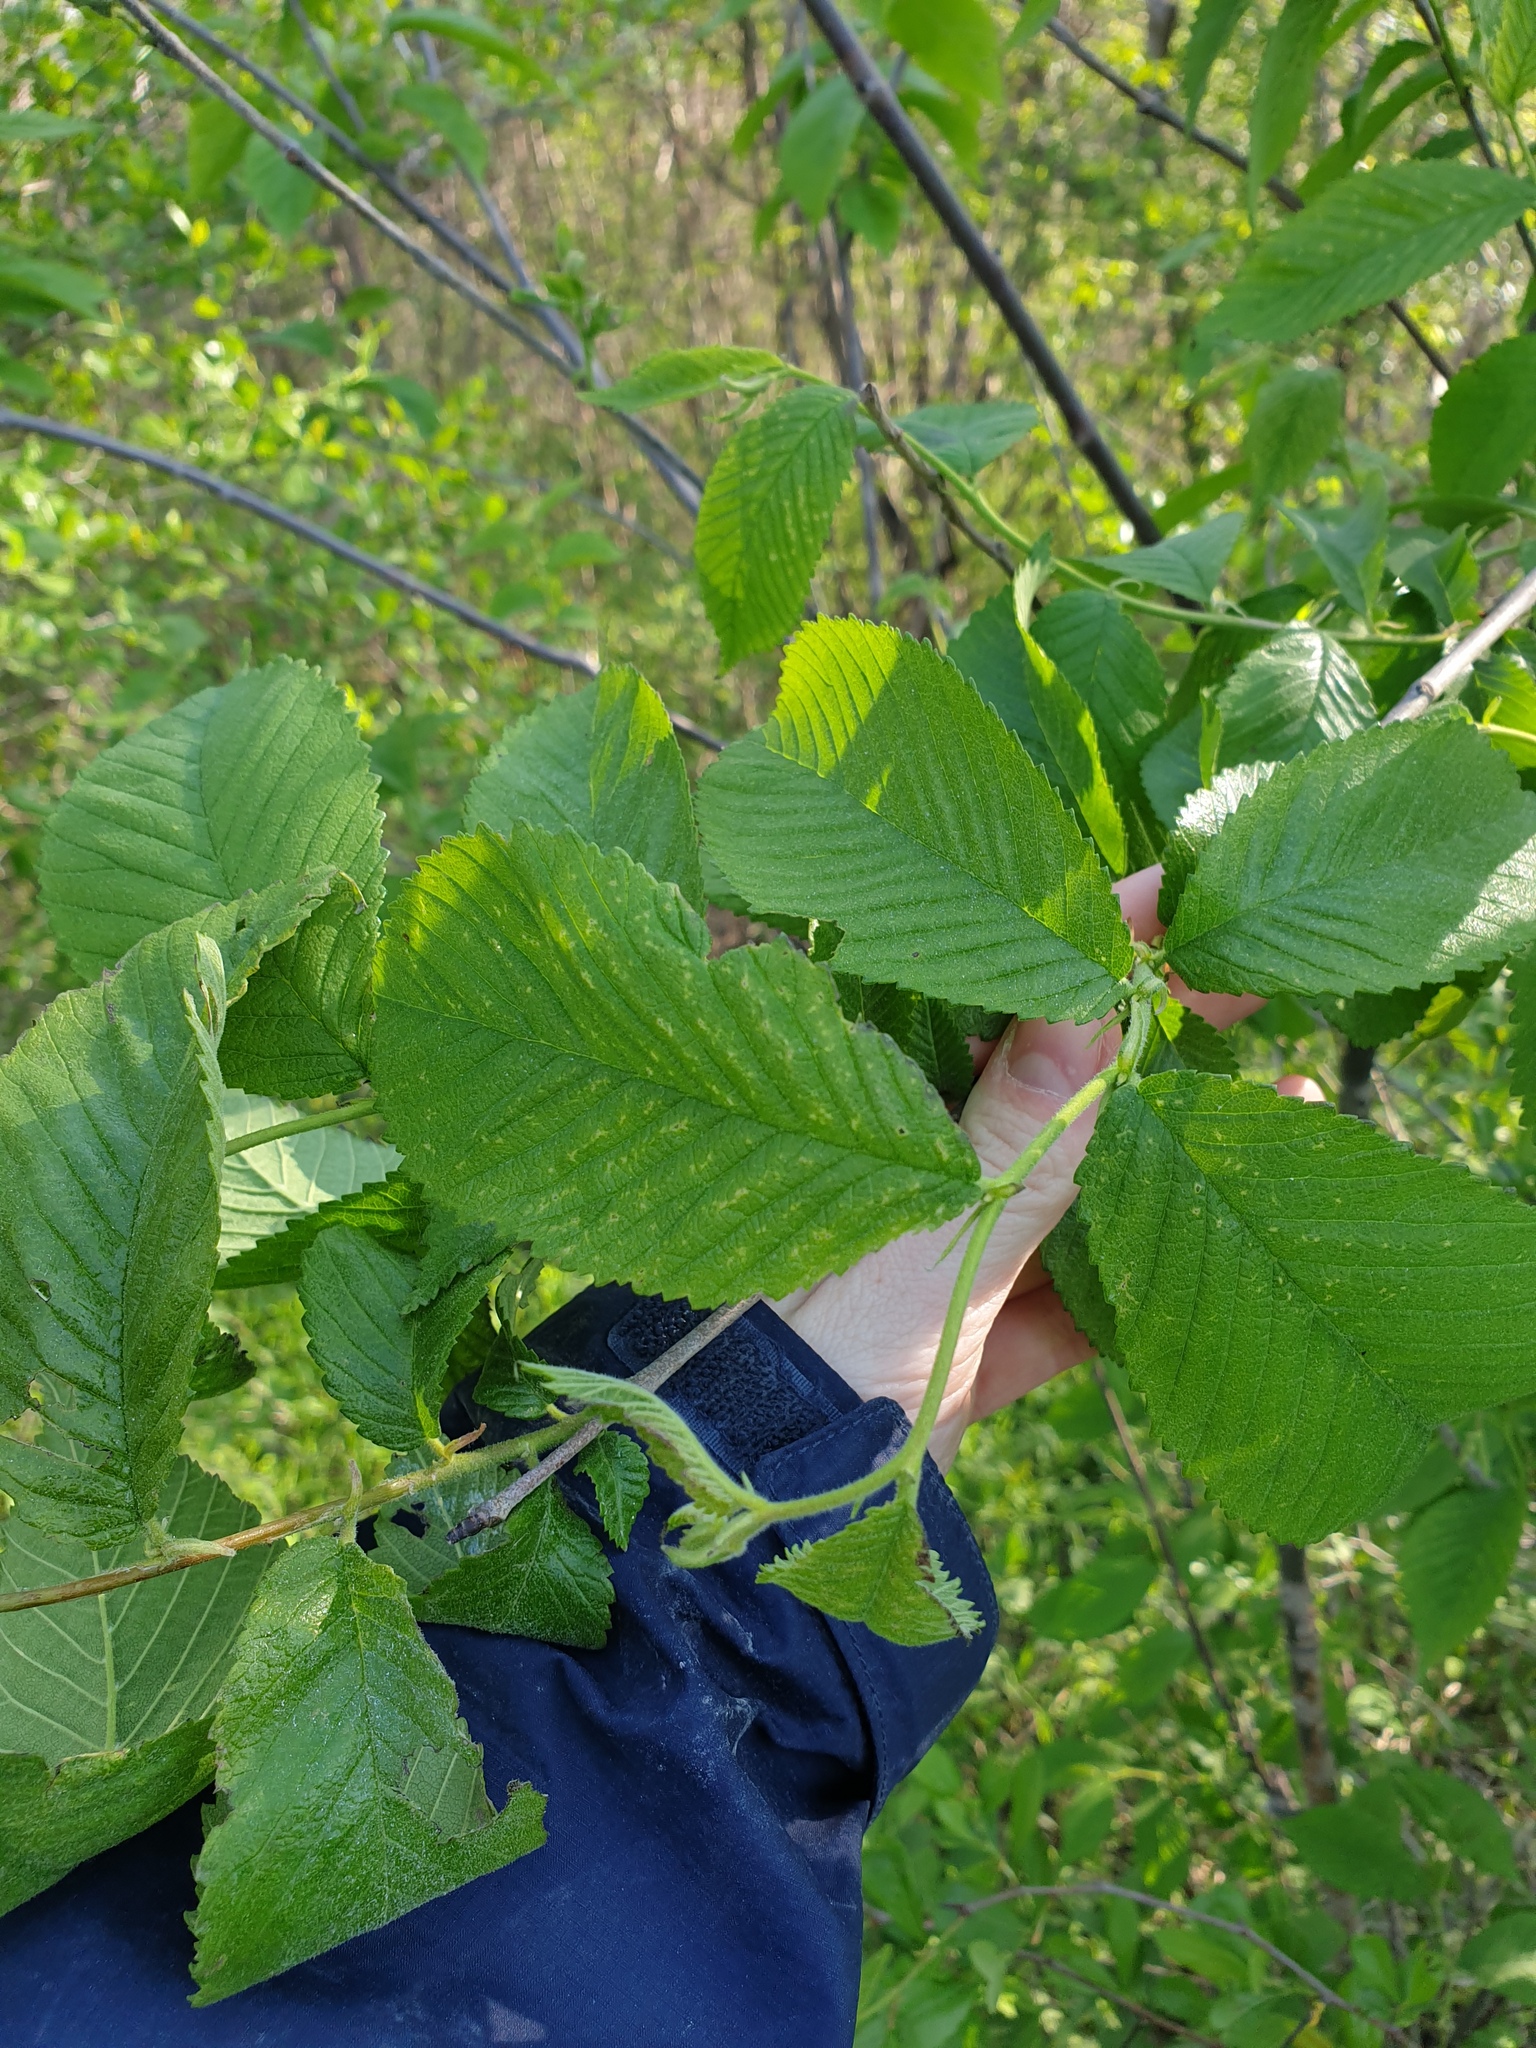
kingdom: Plantae
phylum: Tracheophyta
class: Magnoliopsida
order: Rosales
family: Ulmaceae
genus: Ulmus
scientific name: Ulmus rubra
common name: Slippery elm
